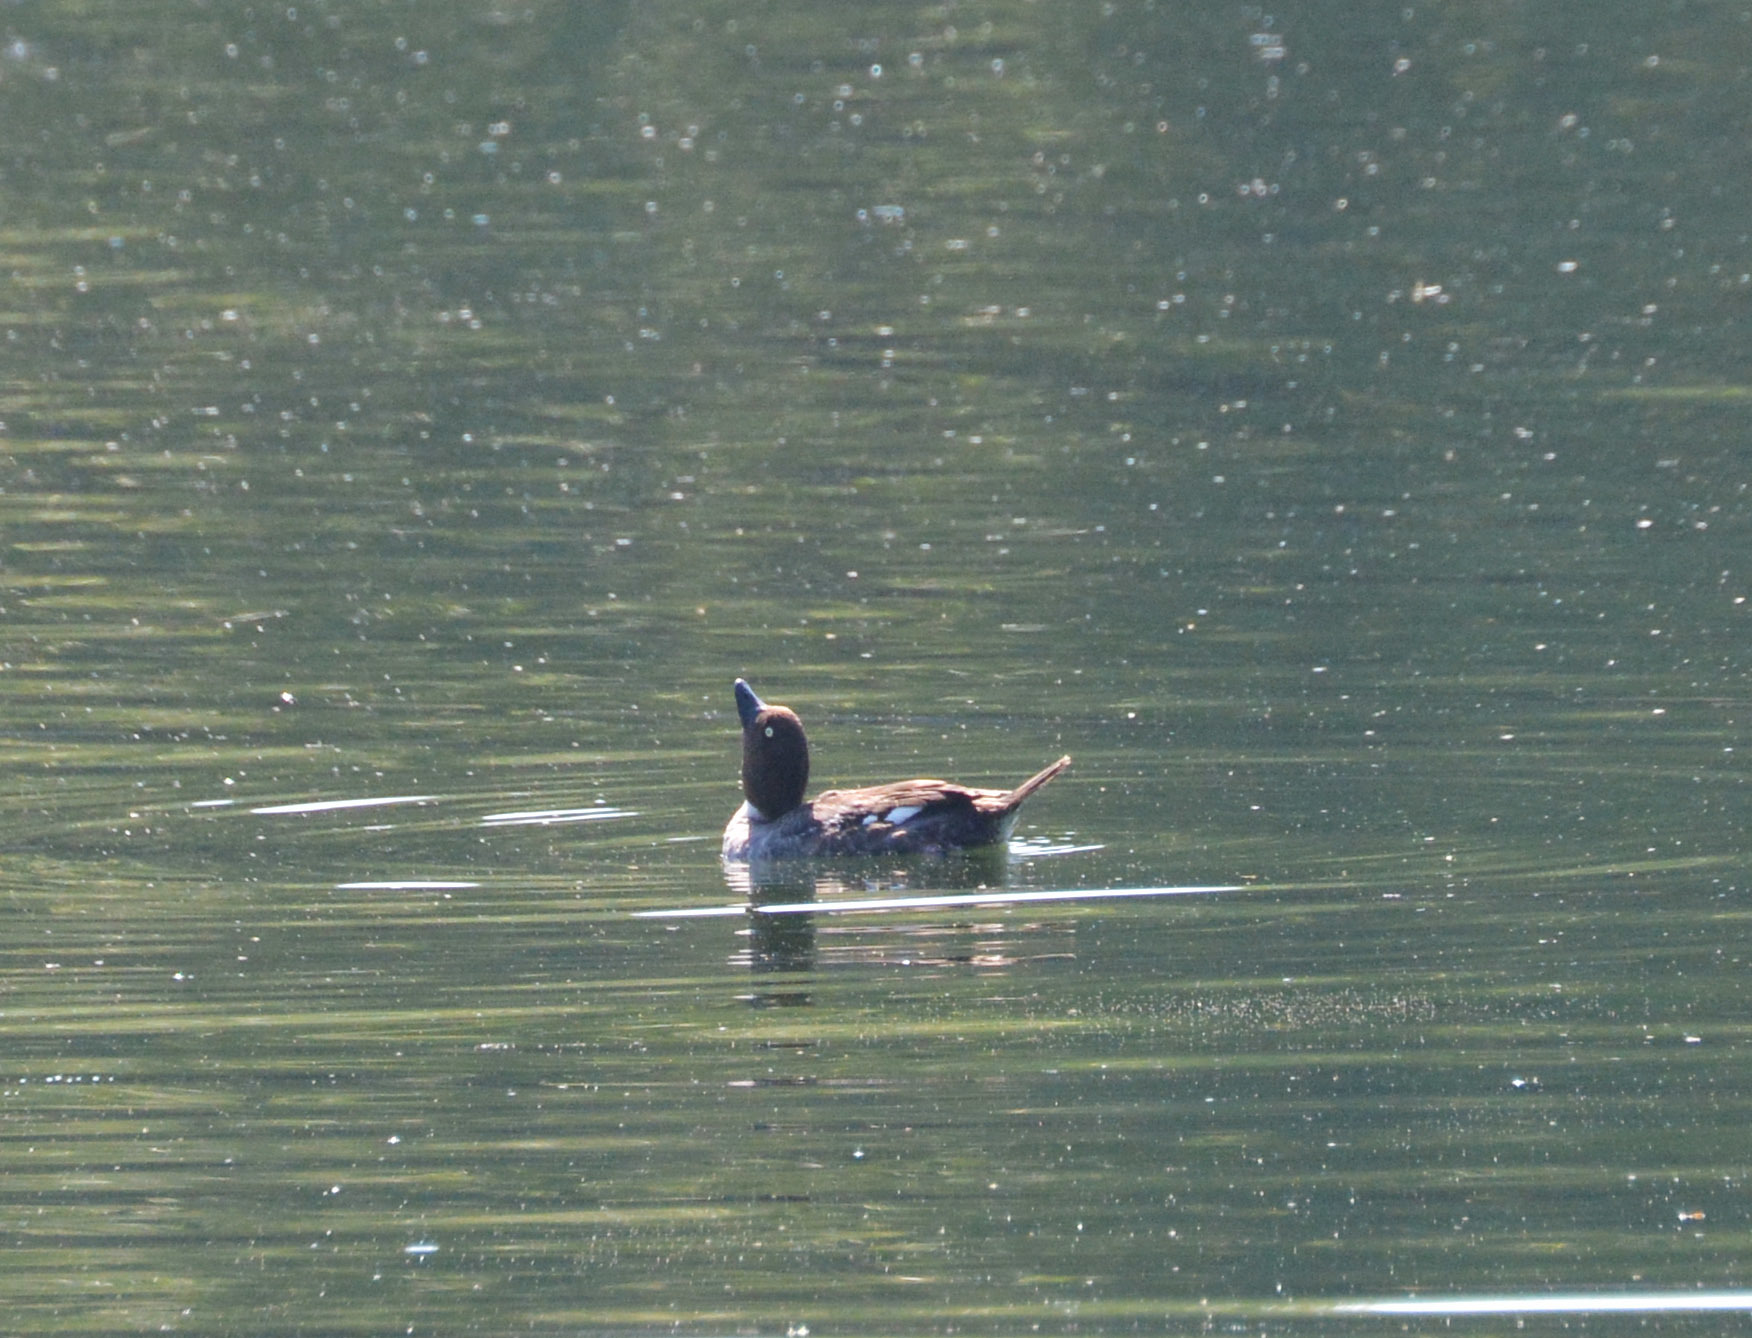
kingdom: Animalia
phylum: Chordata
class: Aves
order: Anseriformes
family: Anatidae
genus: Bucephala
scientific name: Bucephala clangula
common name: Common goldeneye
